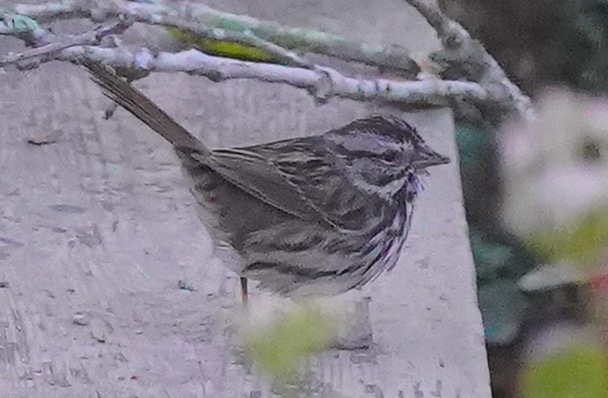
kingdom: Animalia
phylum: Chordata
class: Aves
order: Passeriformes
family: Passerellidae
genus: Melospiza
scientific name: Melospiza melodia
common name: Song sparrow
